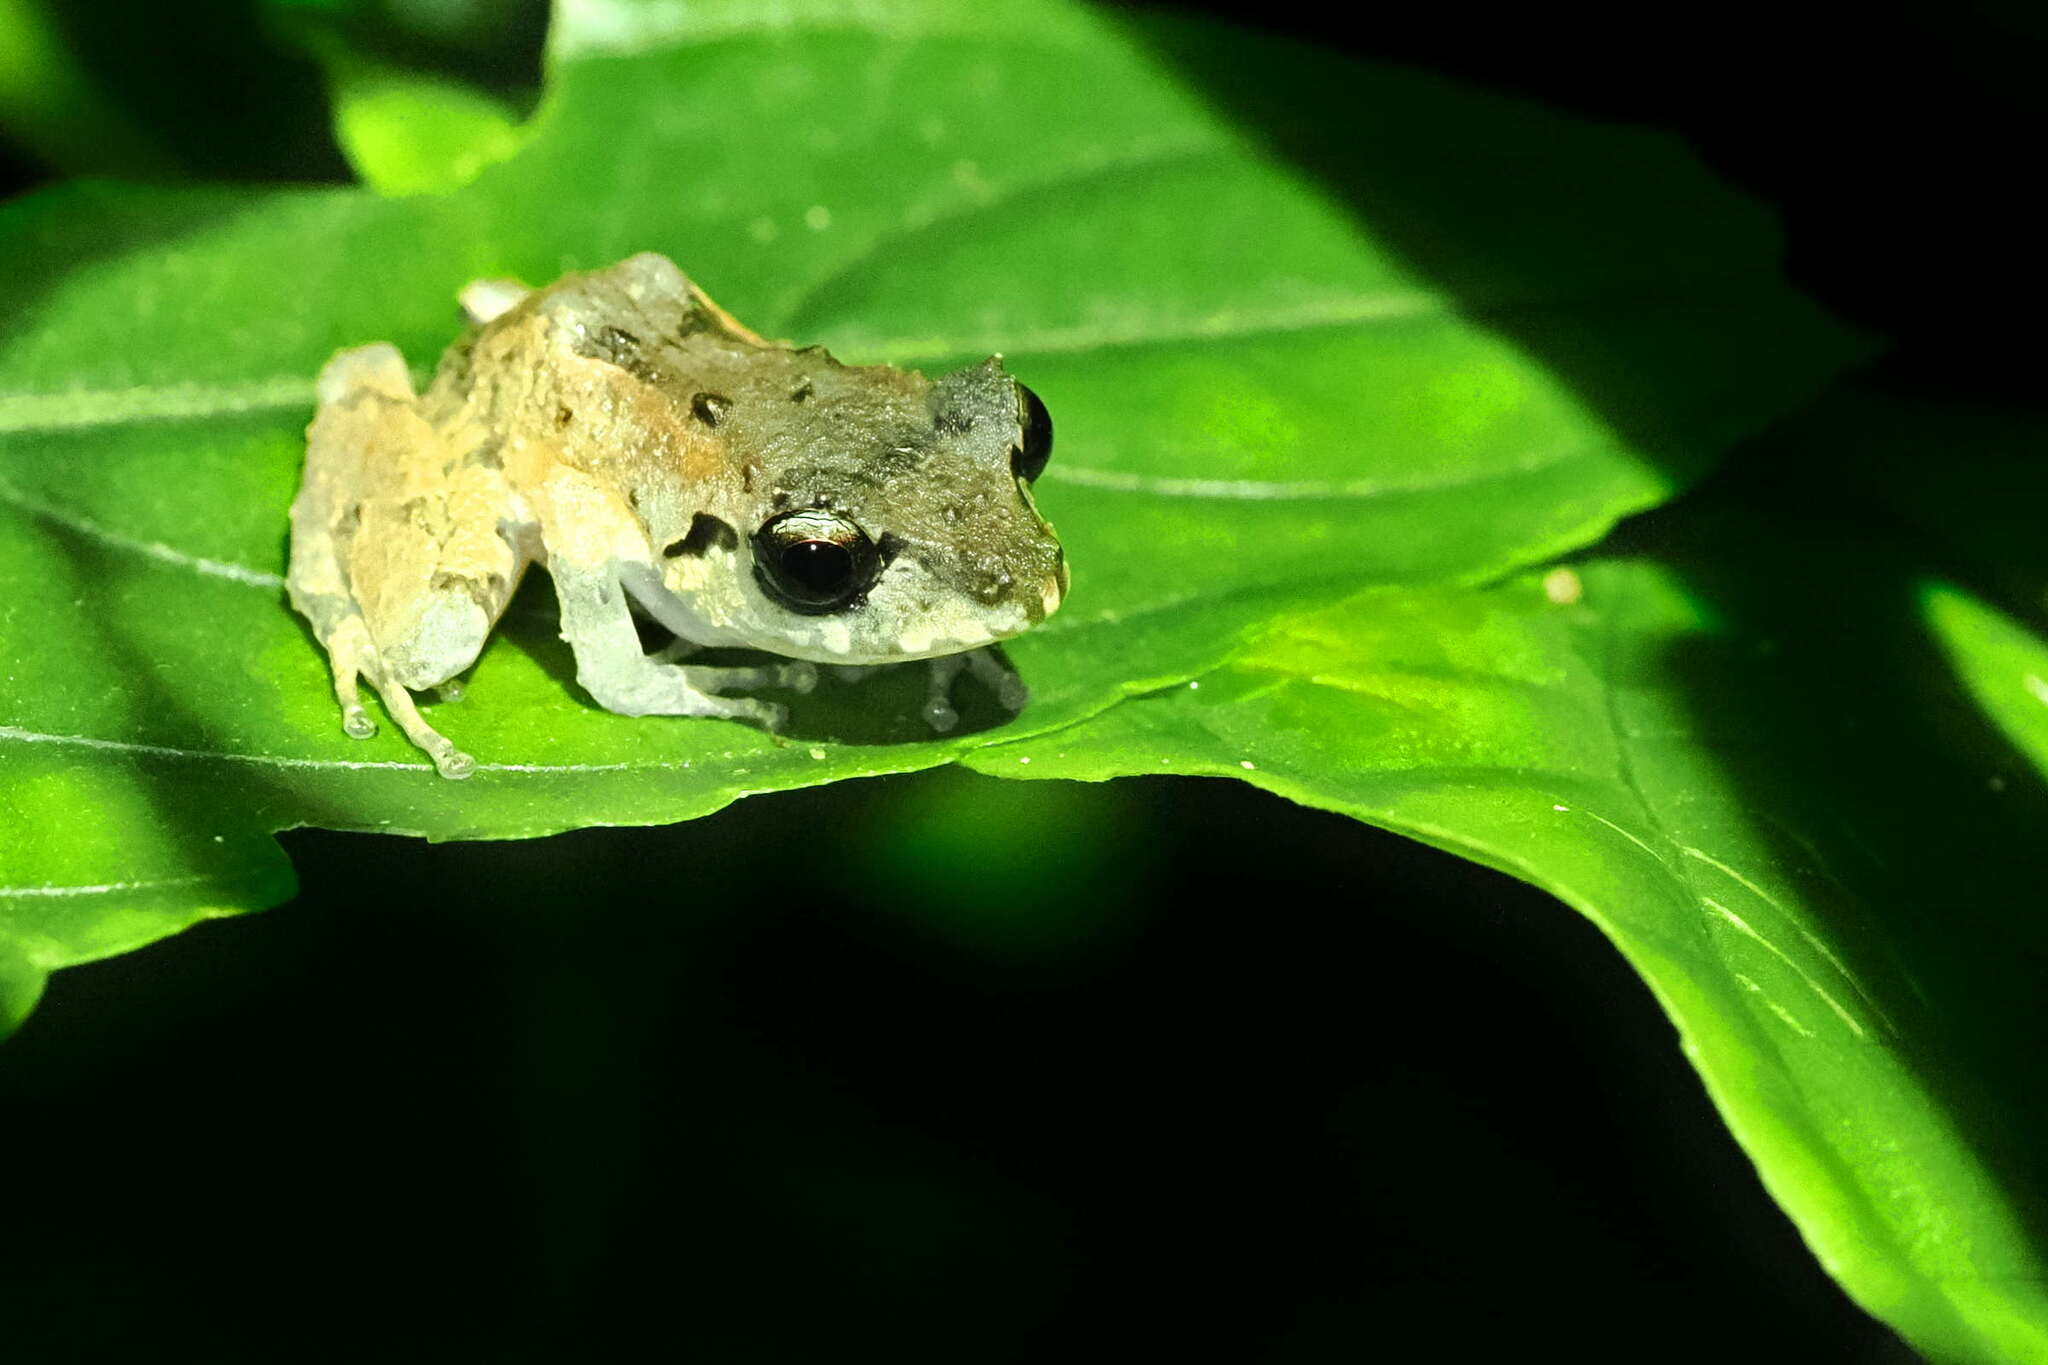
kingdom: Animalia
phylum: Chordata
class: Amphibia
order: Anura
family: Craugastoridae
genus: Pristimantis
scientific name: Pristimantis urichi
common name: Lesser antilles robber frog
